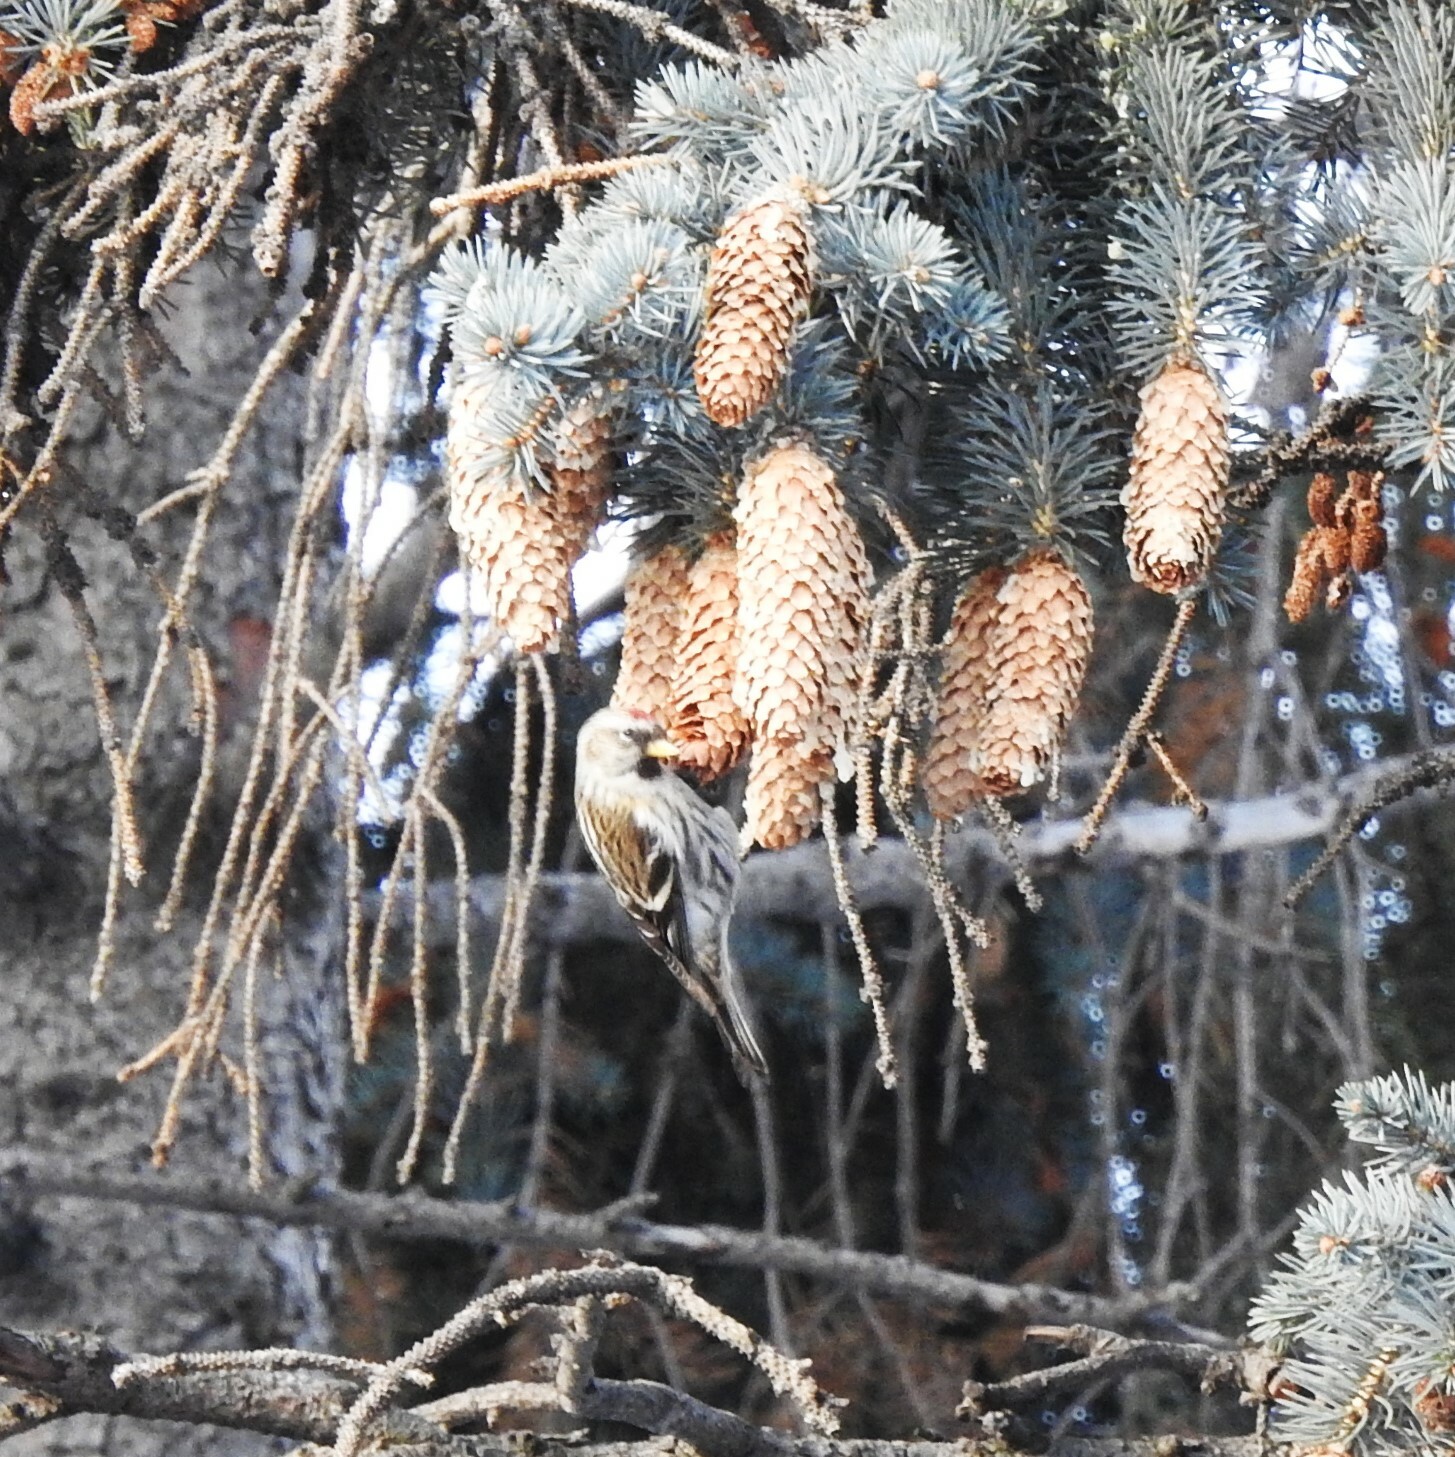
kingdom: Animalia
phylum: Chordata
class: Aves
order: Passeriformes
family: Fringillidae
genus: Acanthis
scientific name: Acanthis flammea
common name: Common redpoll
